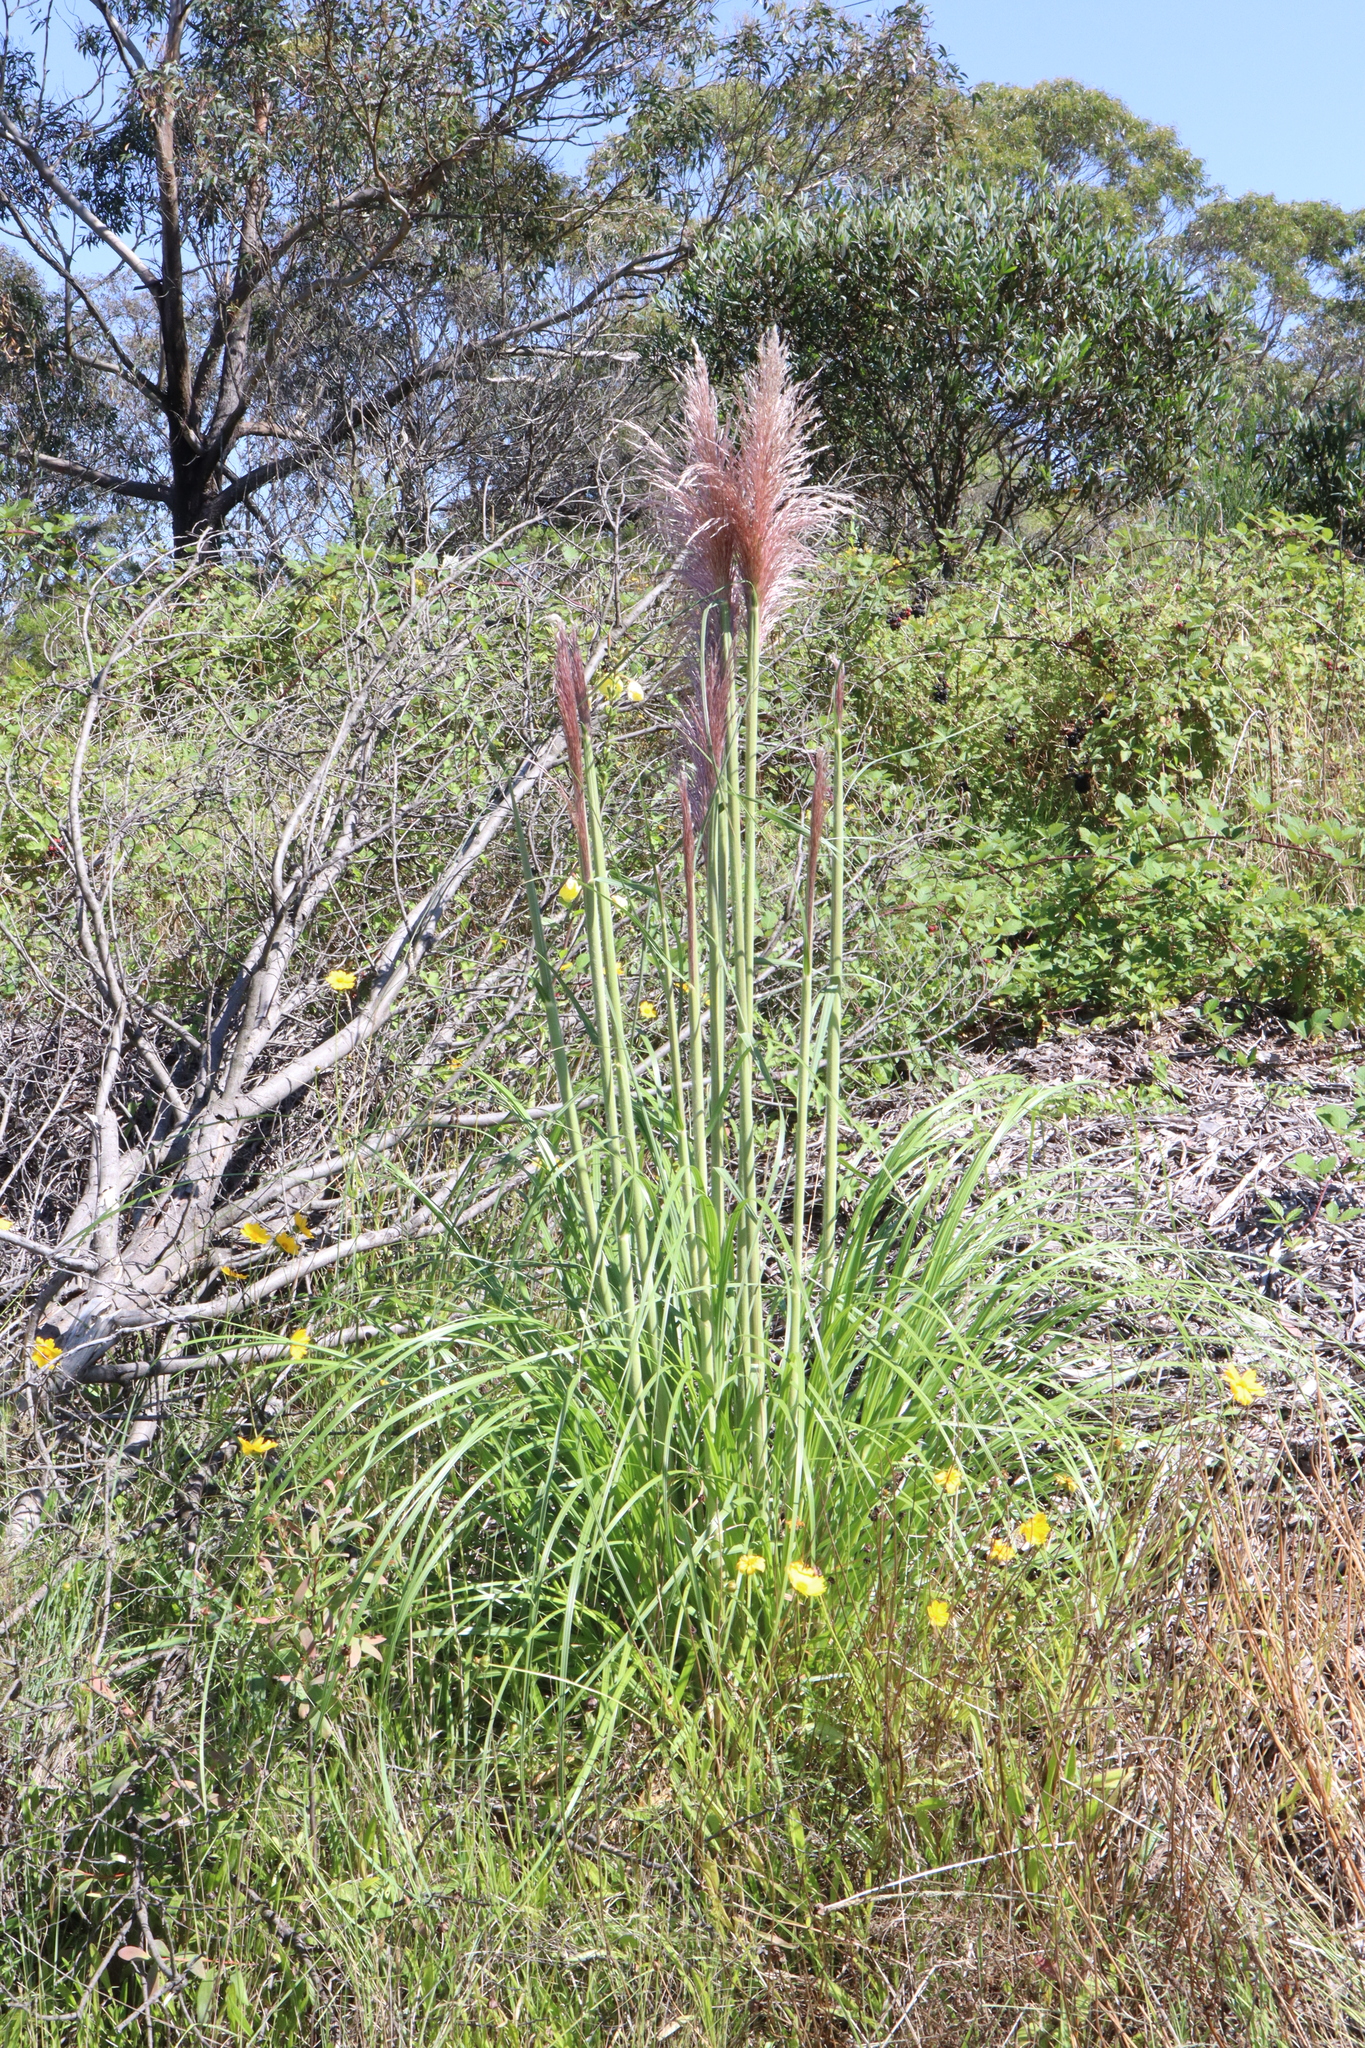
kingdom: Plantae
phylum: Tracheophyta
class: Liliopsida
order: Poales
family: Poaceae
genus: Cortaderia
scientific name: Cortaderia jubata
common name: Purple pampas grass
